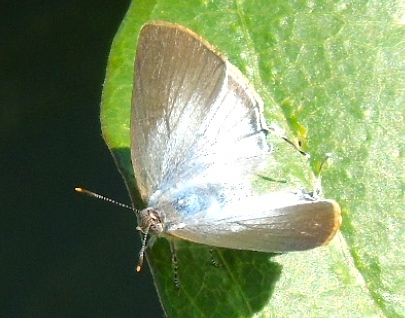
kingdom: Animalia
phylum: Arthropoda
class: Insecta
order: Lepidoptera
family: Lycaenidae
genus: Leptotes
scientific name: Leptotes
